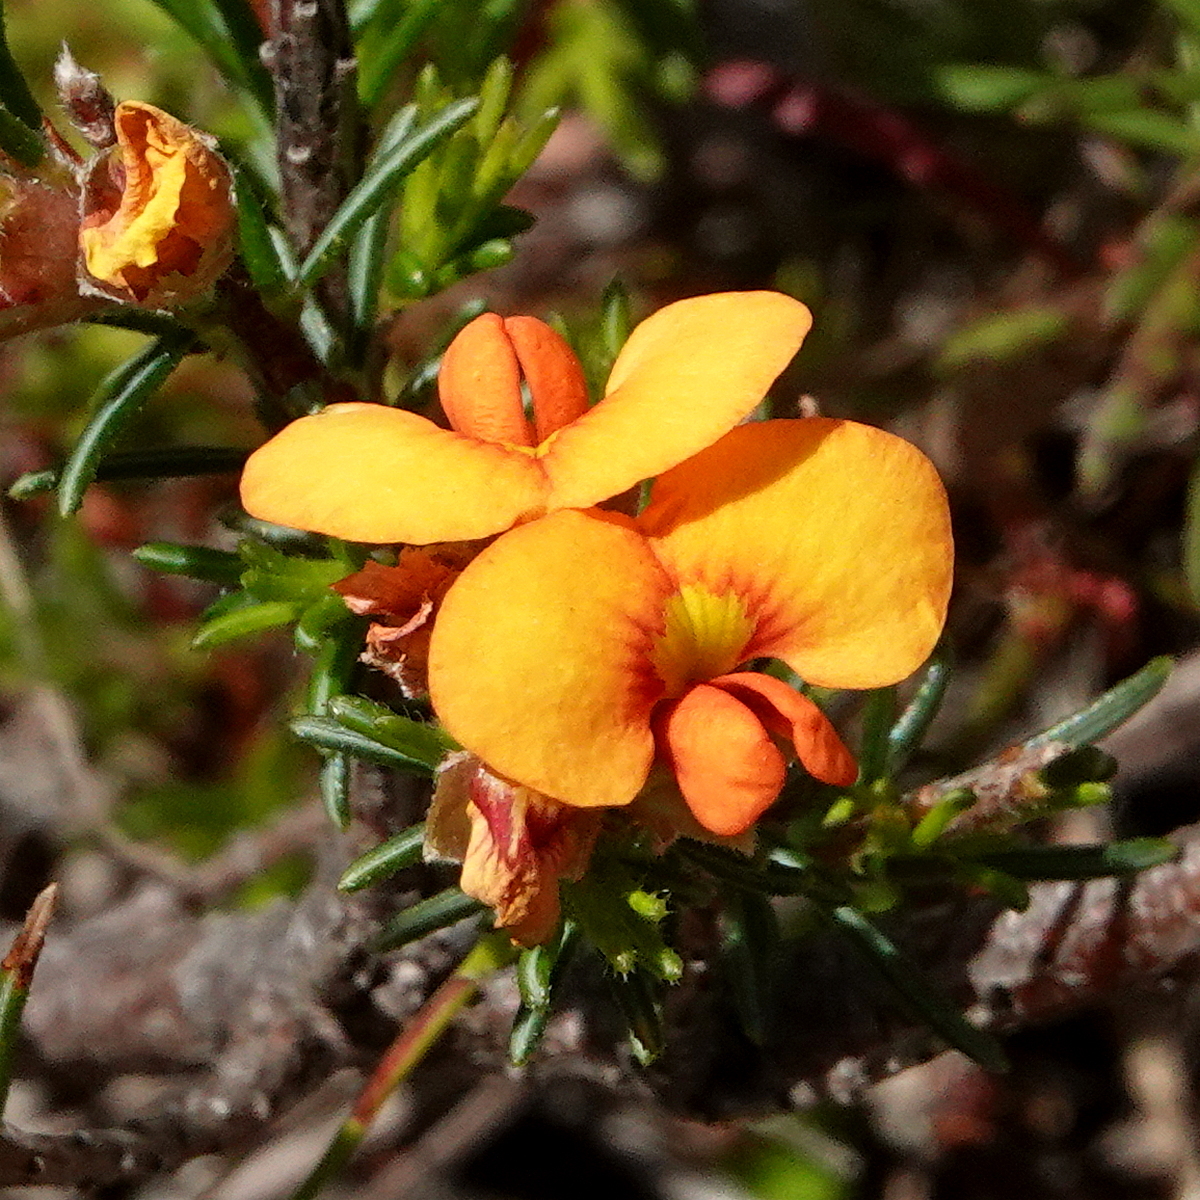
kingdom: Plantae
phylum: Tracheophyta
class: Magnoliopsida
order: Fabales
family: Fabaceae
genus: Dillwynia
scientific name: Dillwynia sericea
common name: Showy parrot-pea
